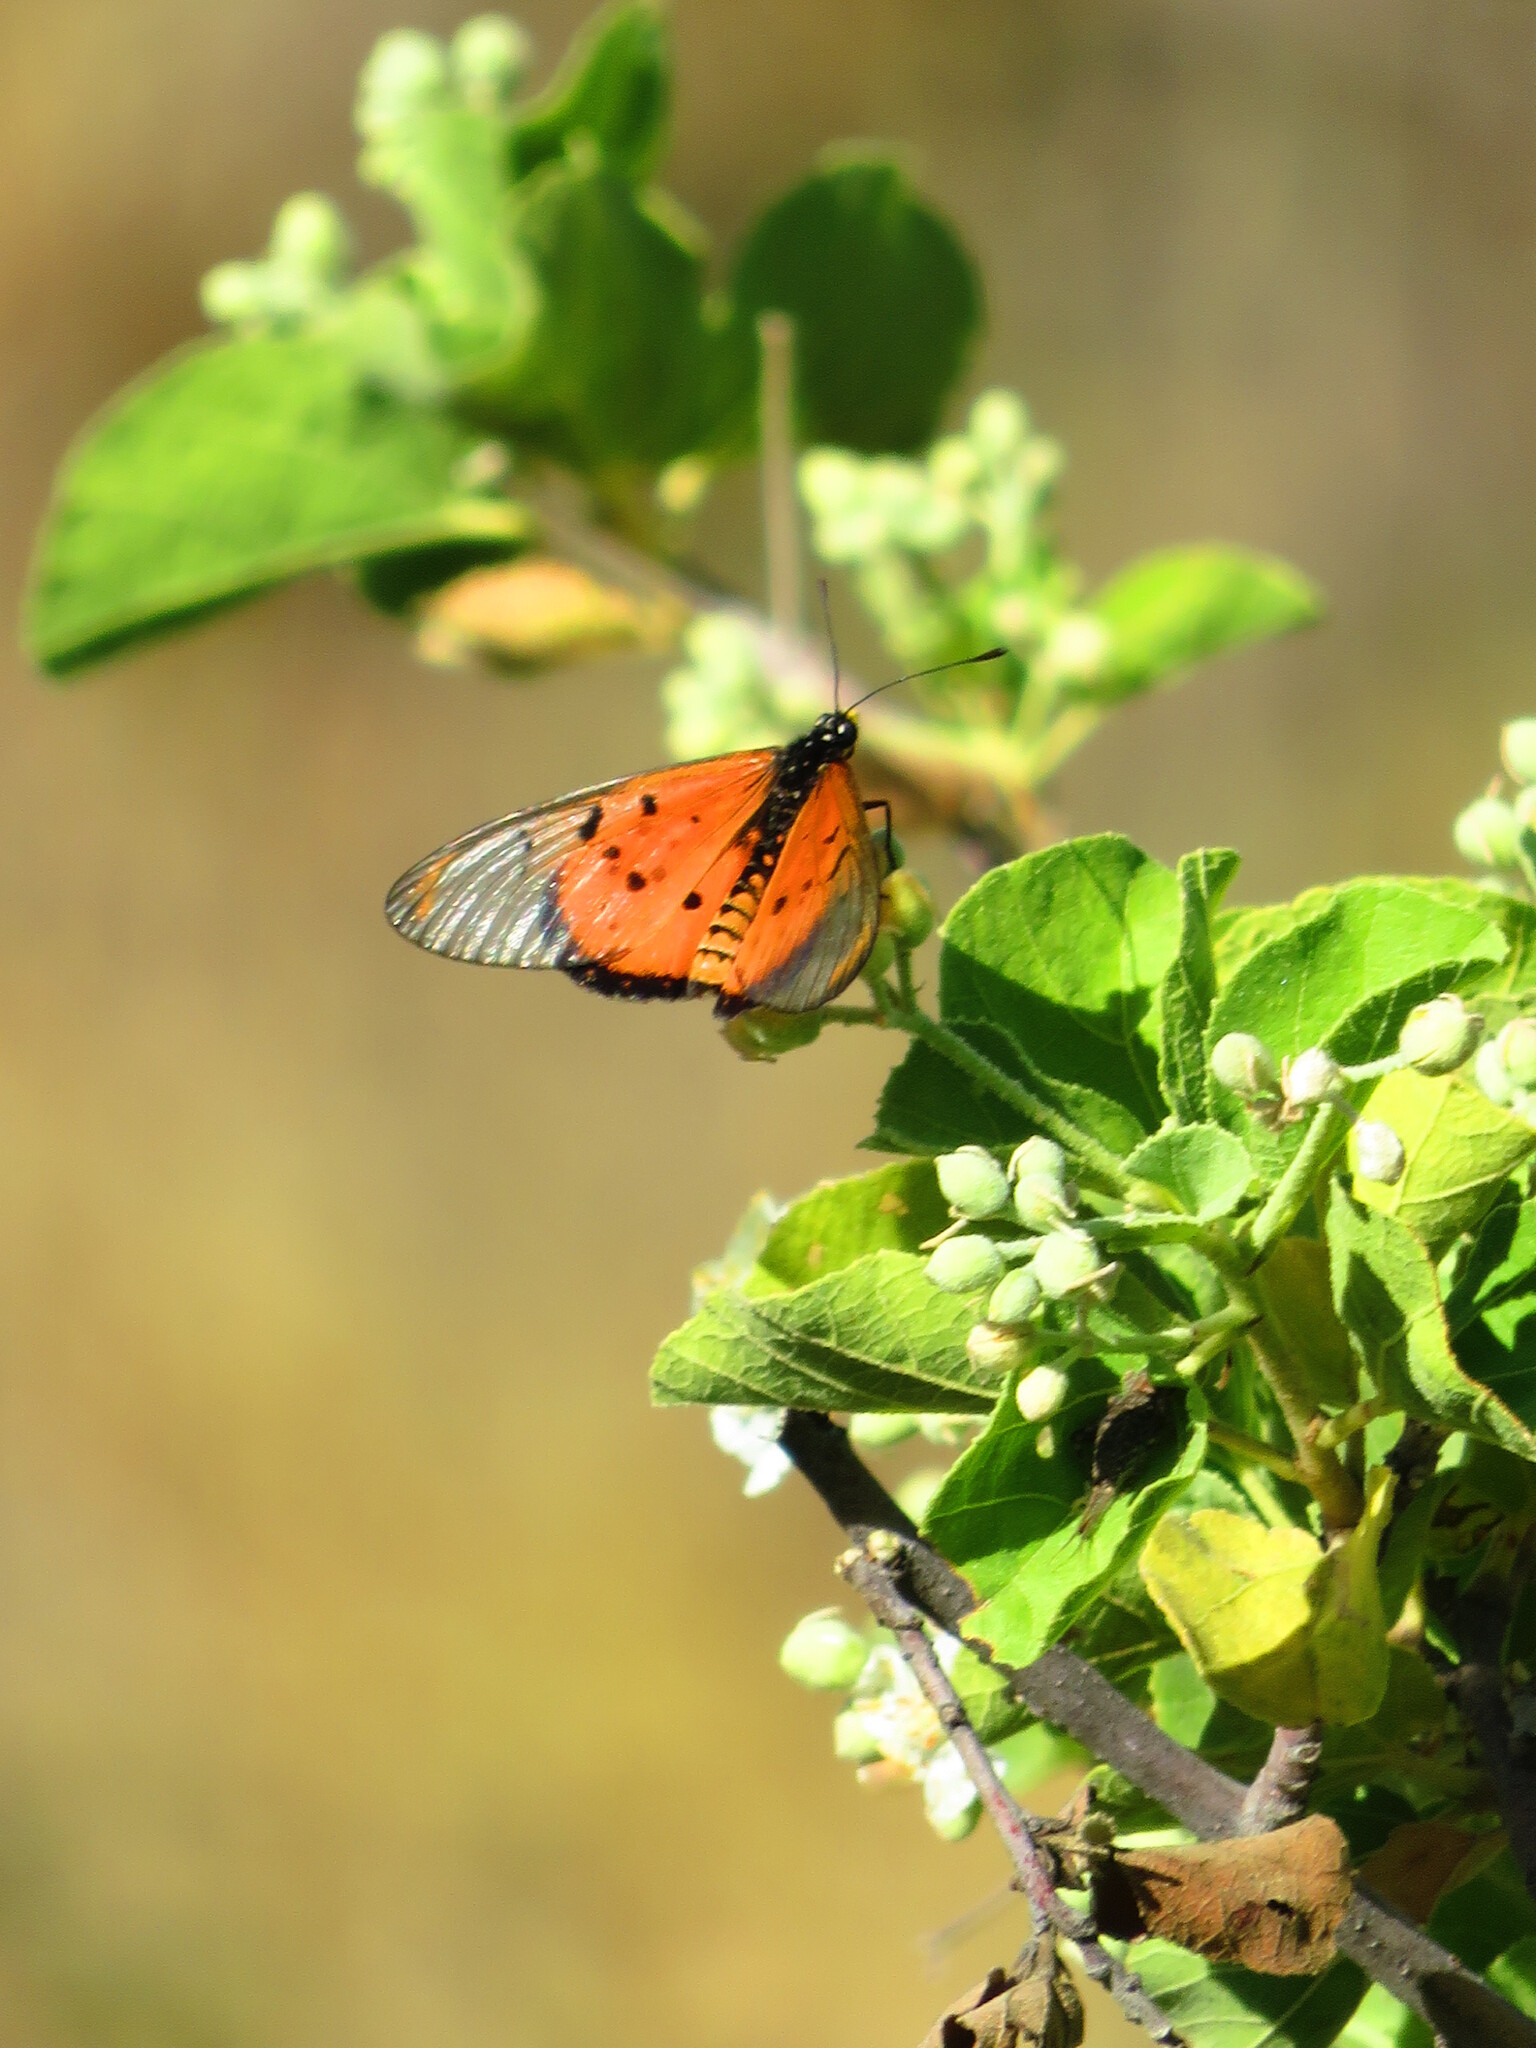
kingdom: Animalia
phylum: Arthropoda
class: Insecta
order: Lepidoptera
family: Nymphalidae
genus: Acraea
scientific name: Acraea neobule
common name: Dancing acraea
